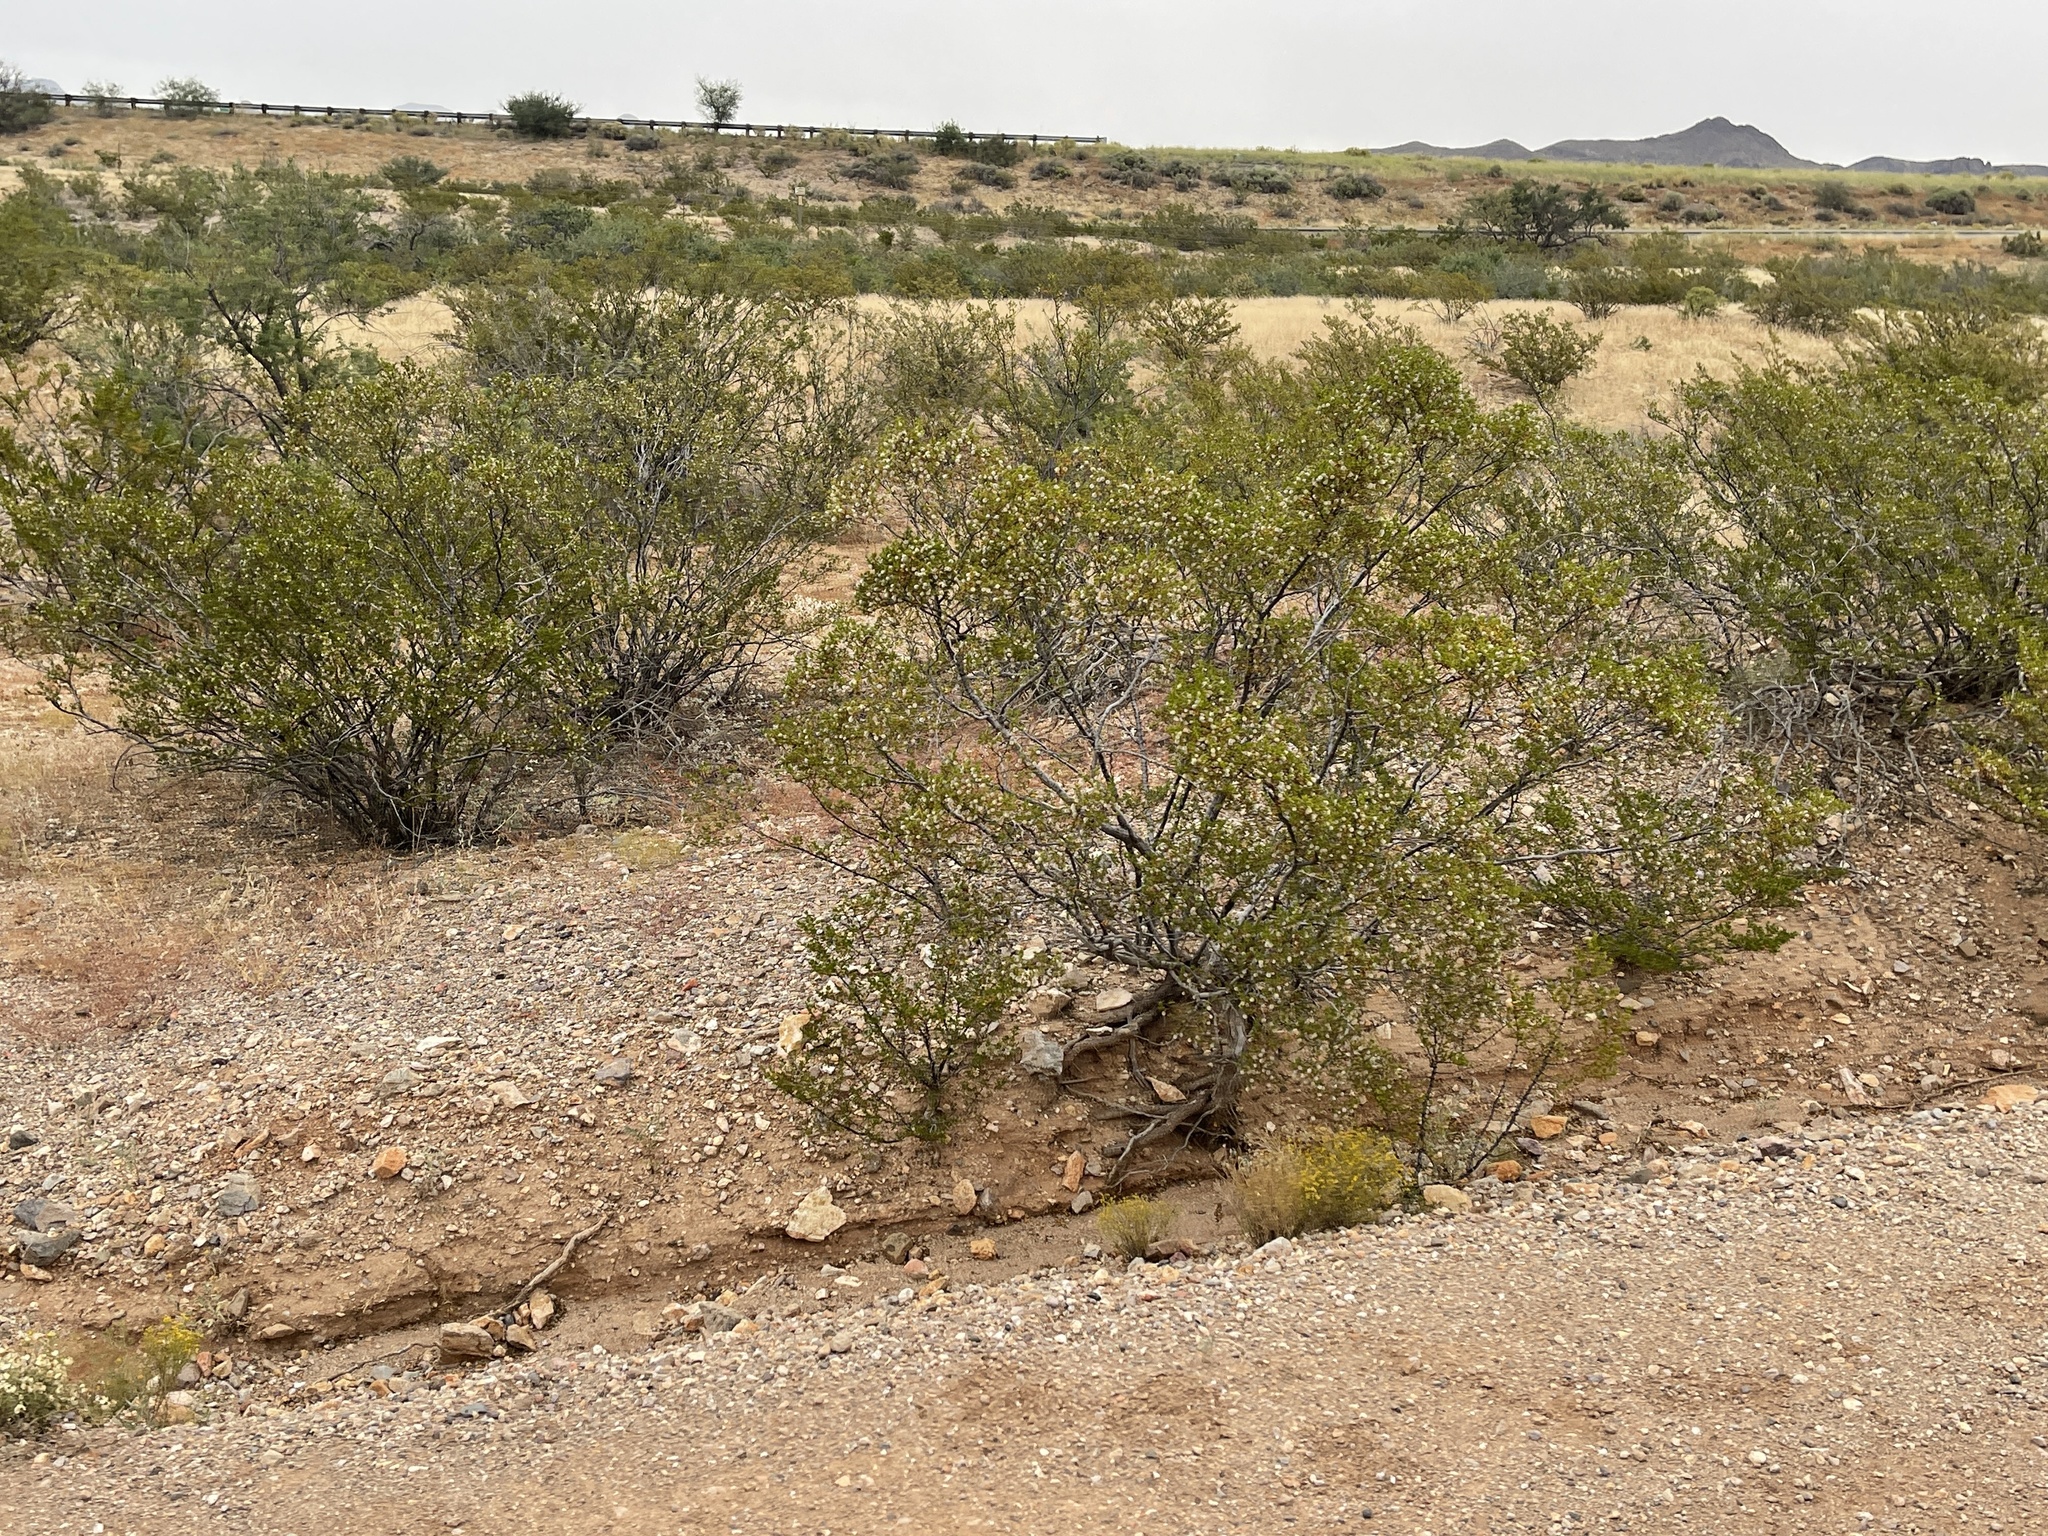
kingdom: Plantae
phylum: Tracheophyta
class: Magnoliopsida
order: Zygophyllales
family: Zygophyllaceae
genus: Larrea
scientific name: Larrea tridentata
